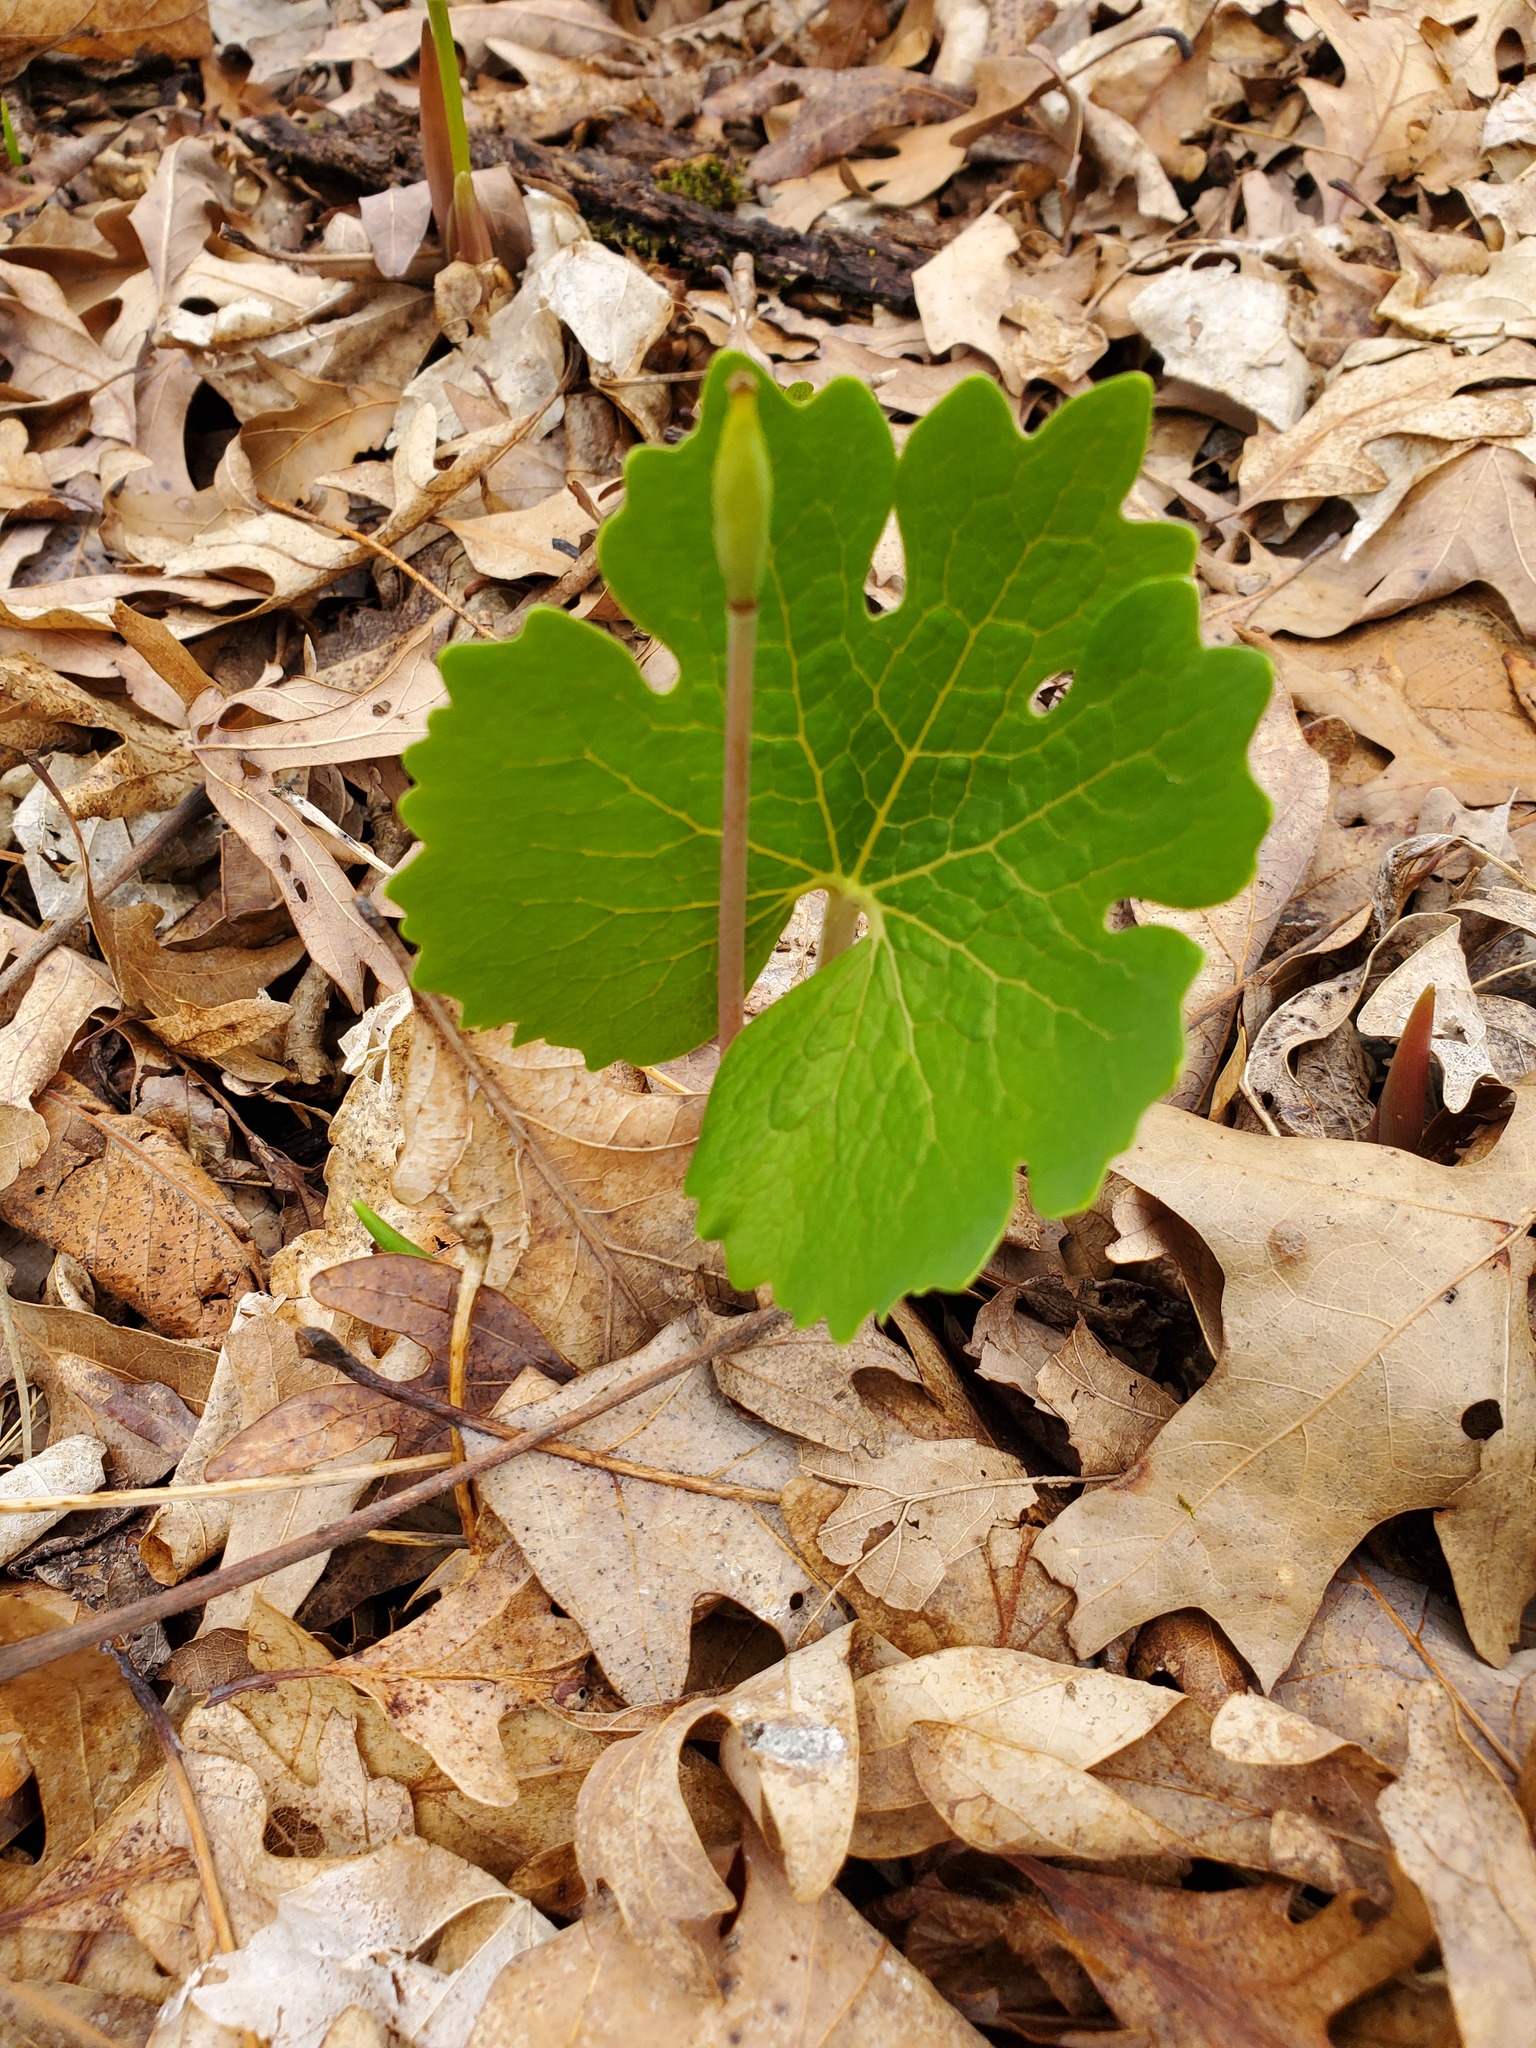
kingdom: Plantae
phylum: Tracheophyta
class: Magnoliopsida
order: Ranunculales
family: Papaveraceae
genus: Sanguinaria
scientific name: Sanguinaria canadensis
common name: Bloodroot
